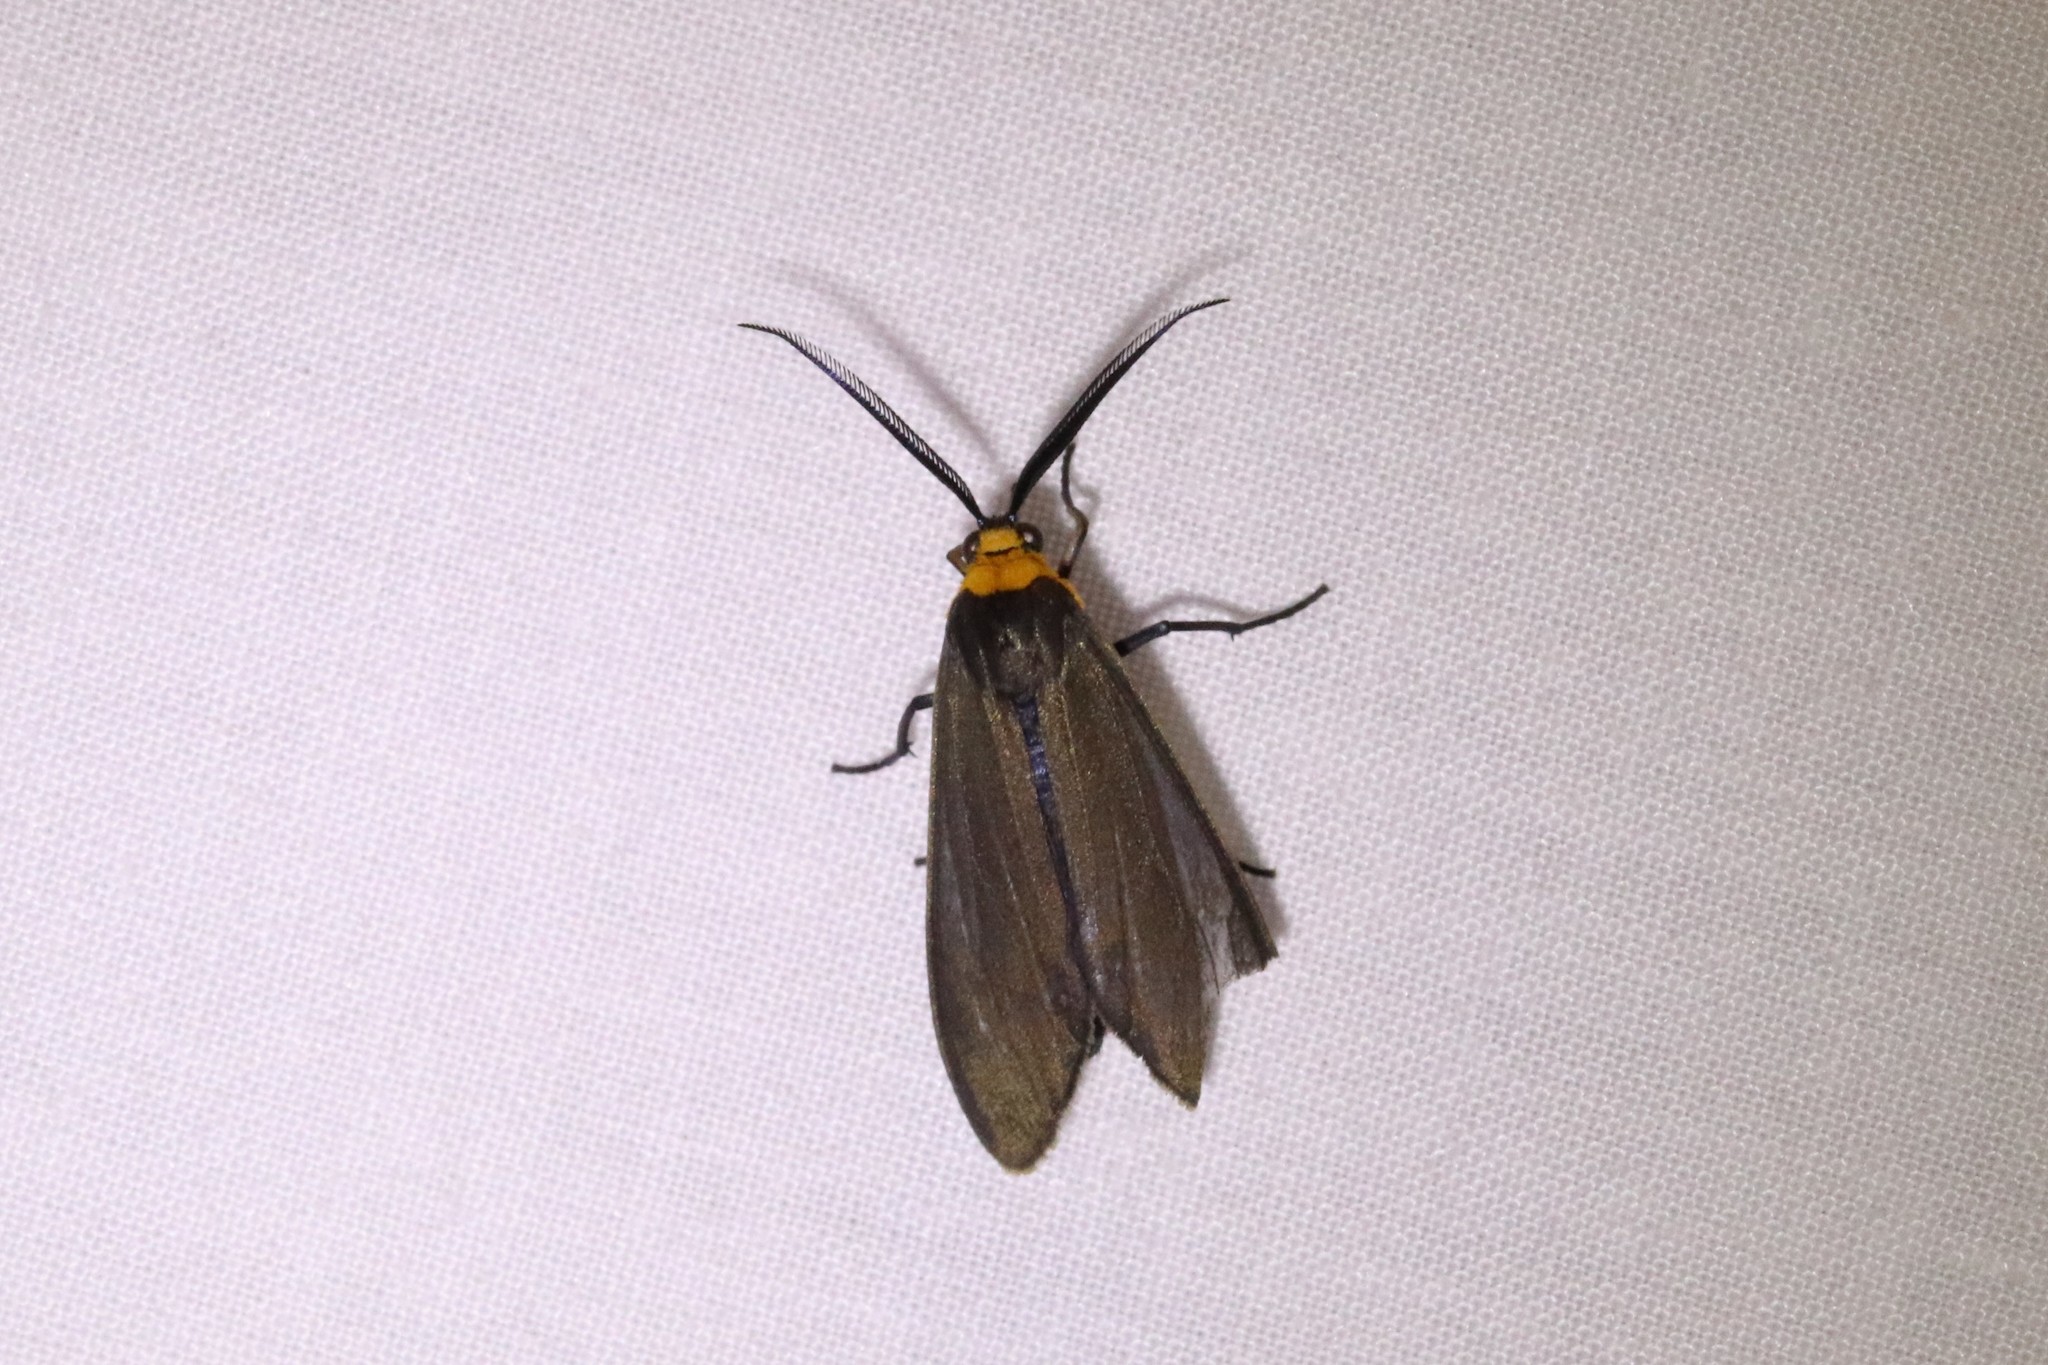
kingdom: Animalia
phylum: Arthropoda
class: Insecta
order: Lepidoptera
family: Erebidae
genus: Cisseps
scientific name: Cisseps fulvicollis
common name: Yellow-collared scape moth
